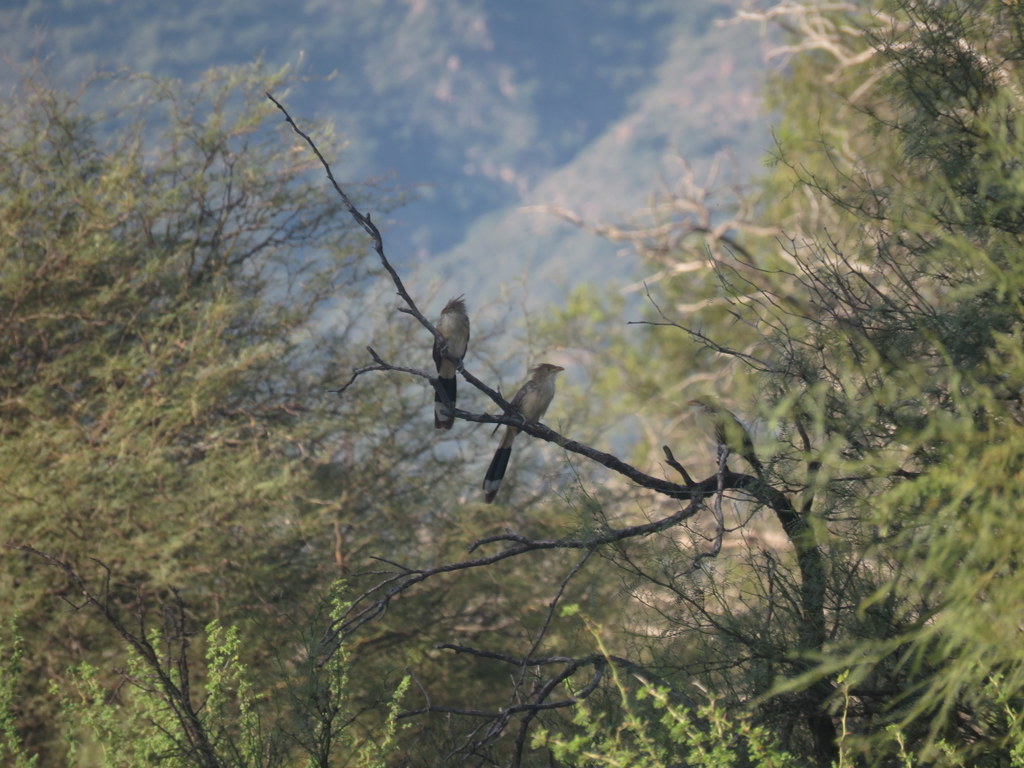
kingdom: Animalia
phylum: Chordata
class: Aves
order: Cuculiformes
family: Cuculidae
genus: Guira
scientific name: Guira guira
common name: Guira cuckoo
